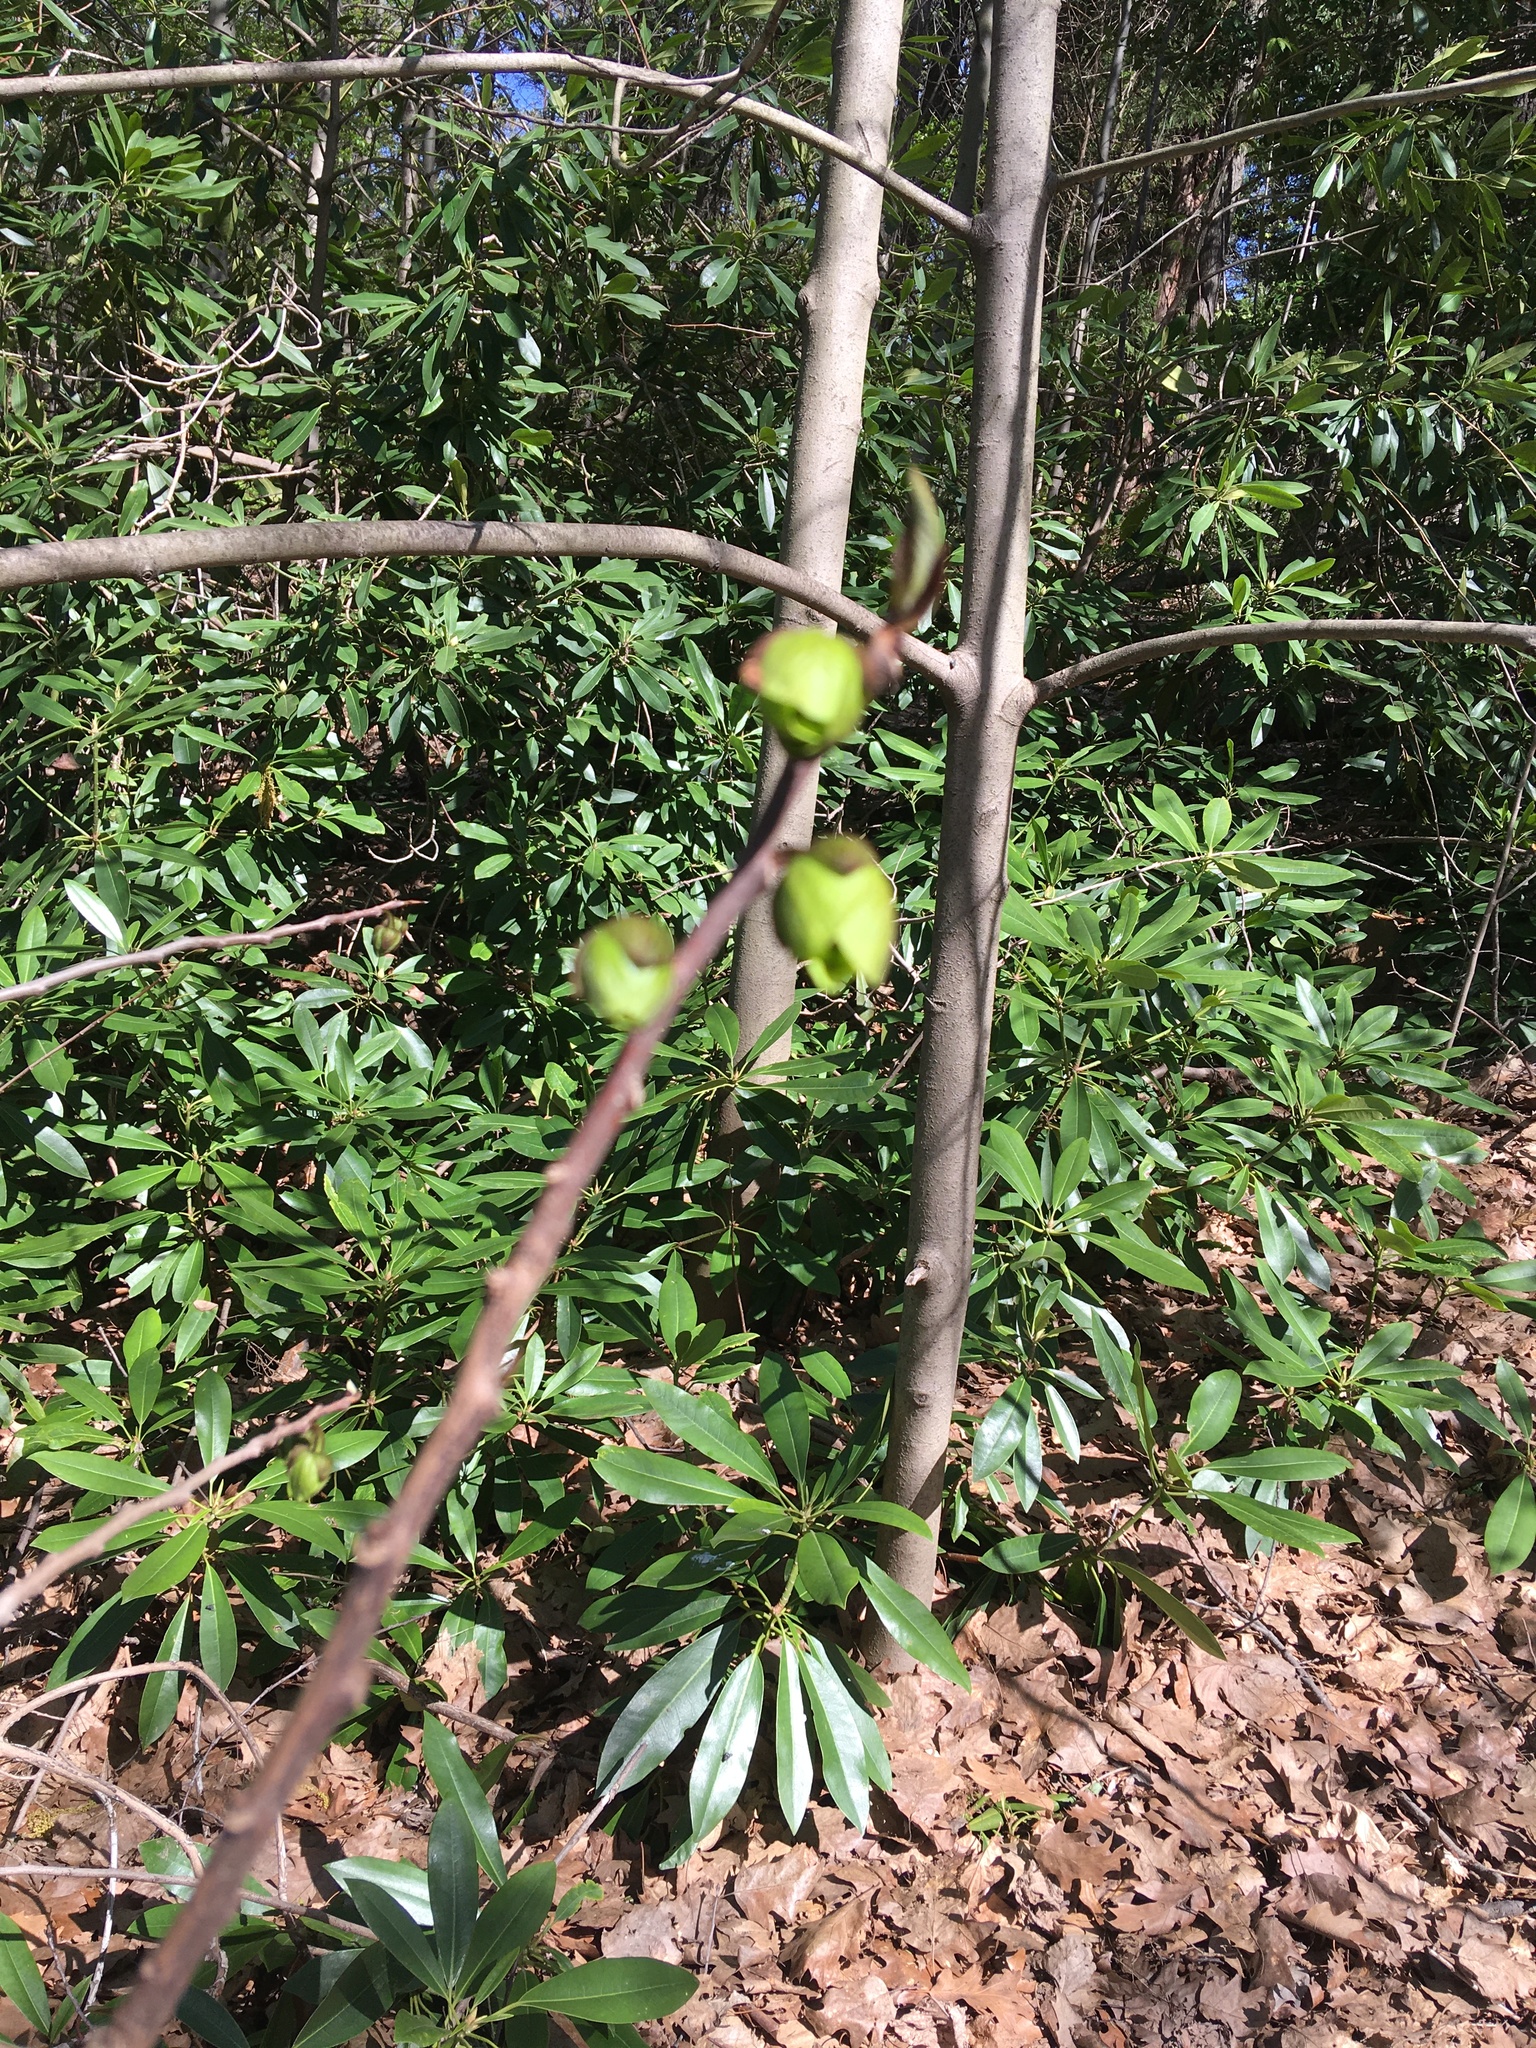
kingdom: Plantae
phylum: Tracheophyta
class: Magnoliopsida
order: Magnoliales
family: Annonaceae
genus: Asimina
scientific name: Asimina triloba
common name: Dog-banana
